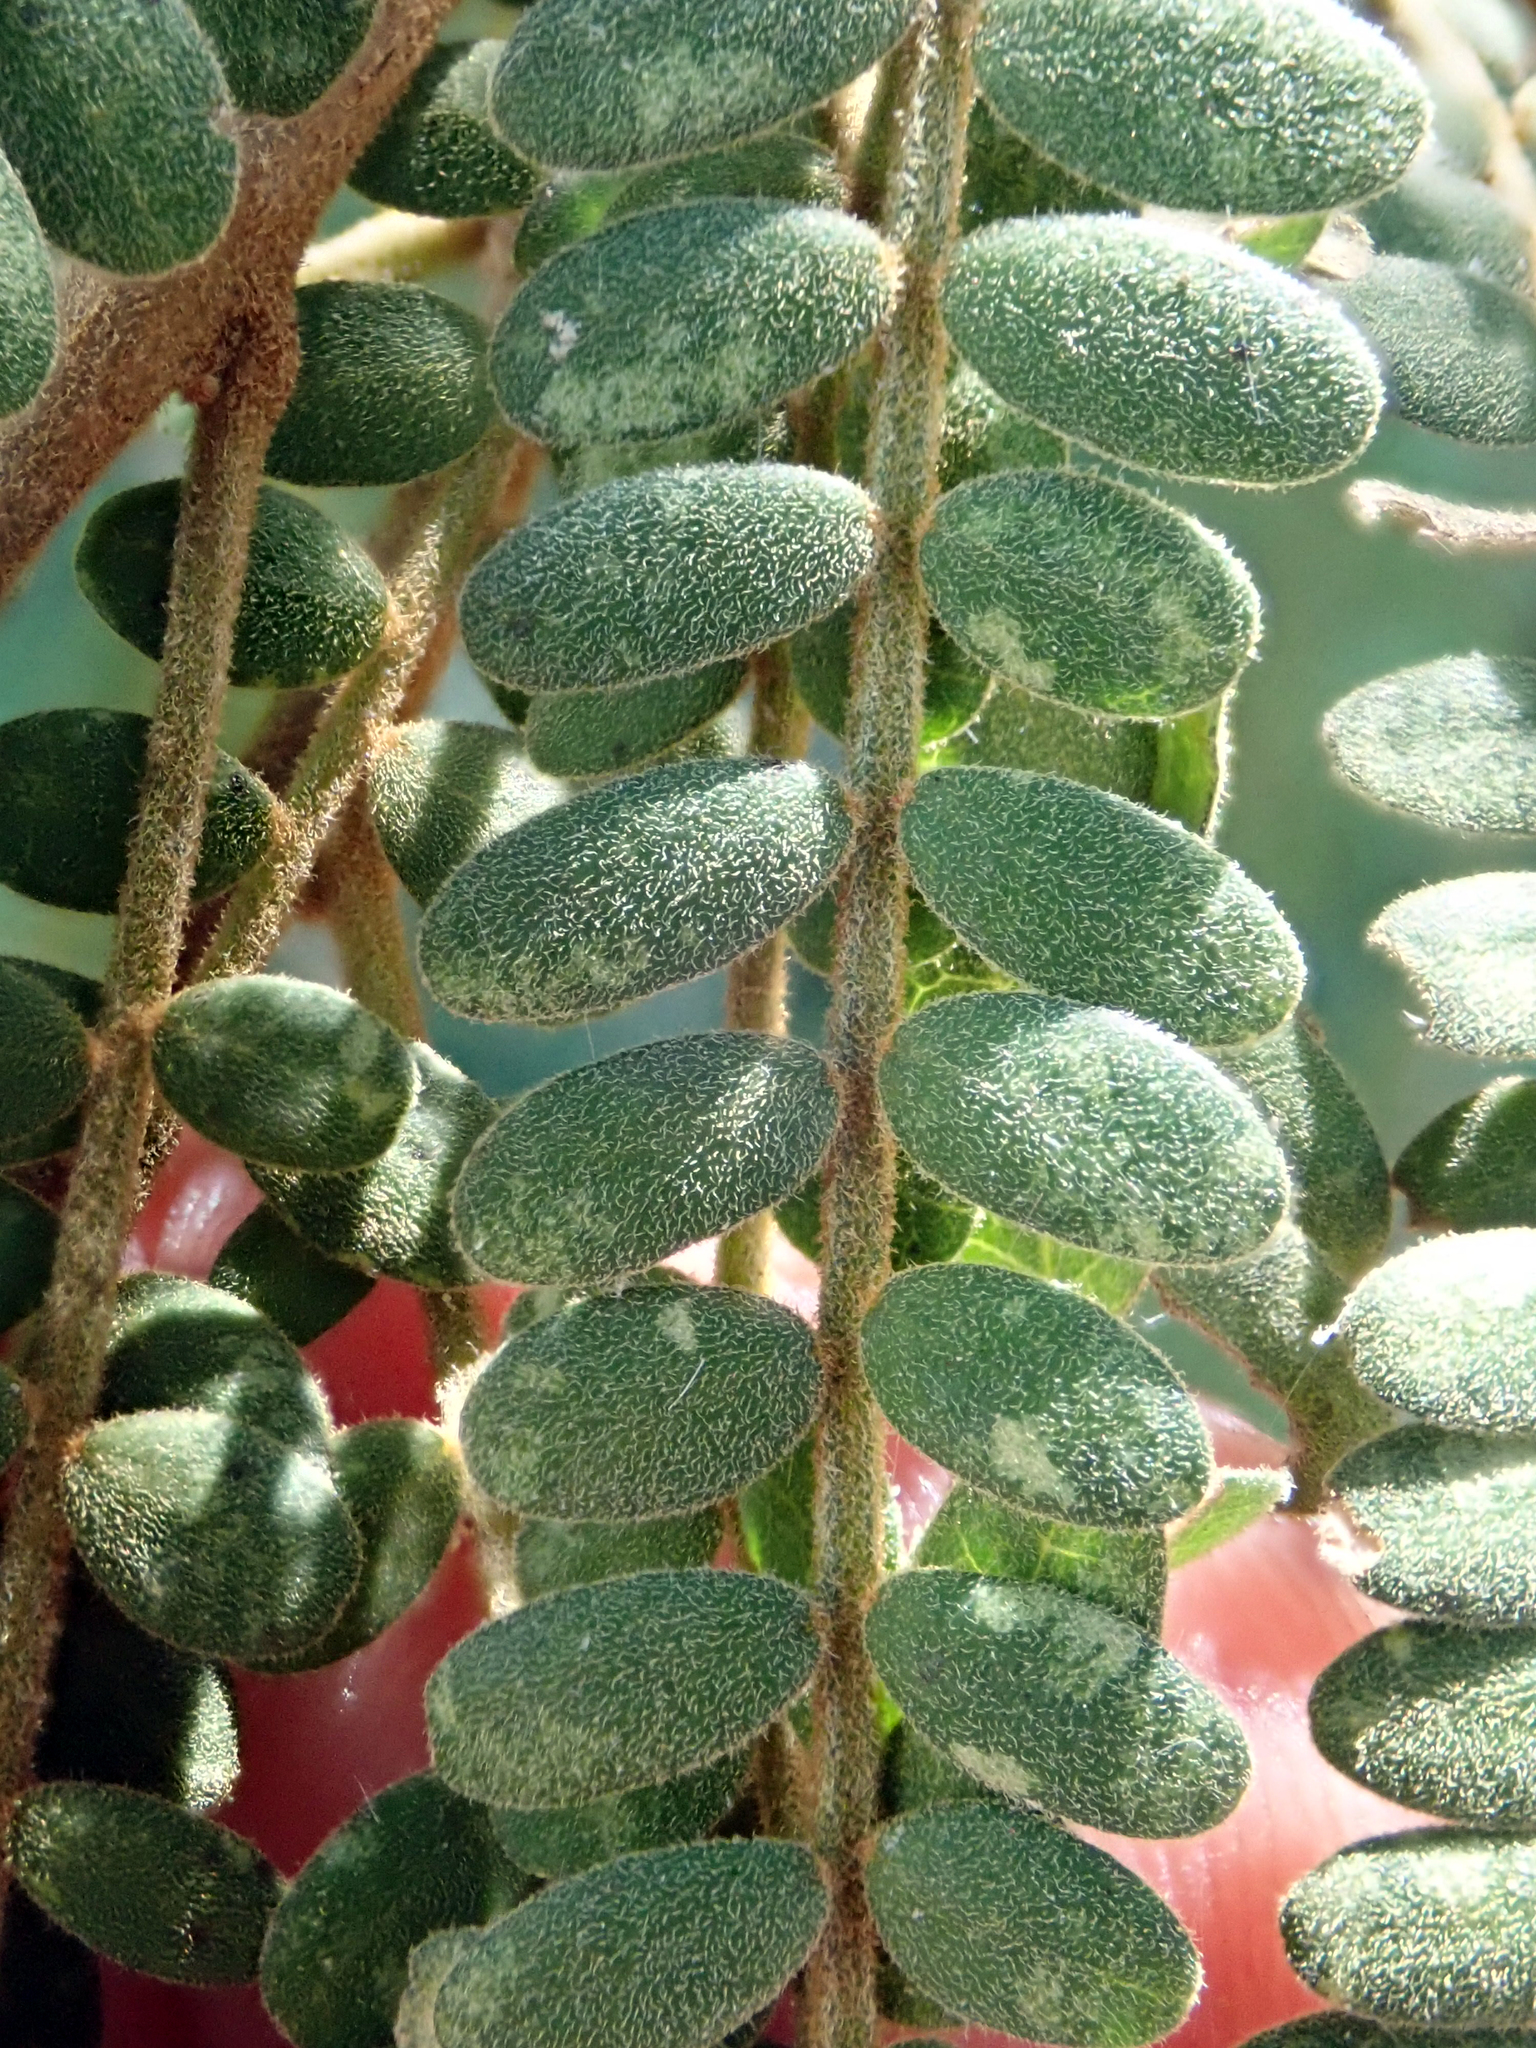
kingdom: Plantae
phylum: Tracheophyta
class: Magnoliopsida
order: Fabales
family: Fabaceae
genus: Sophora
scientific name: Sophora godleyi
